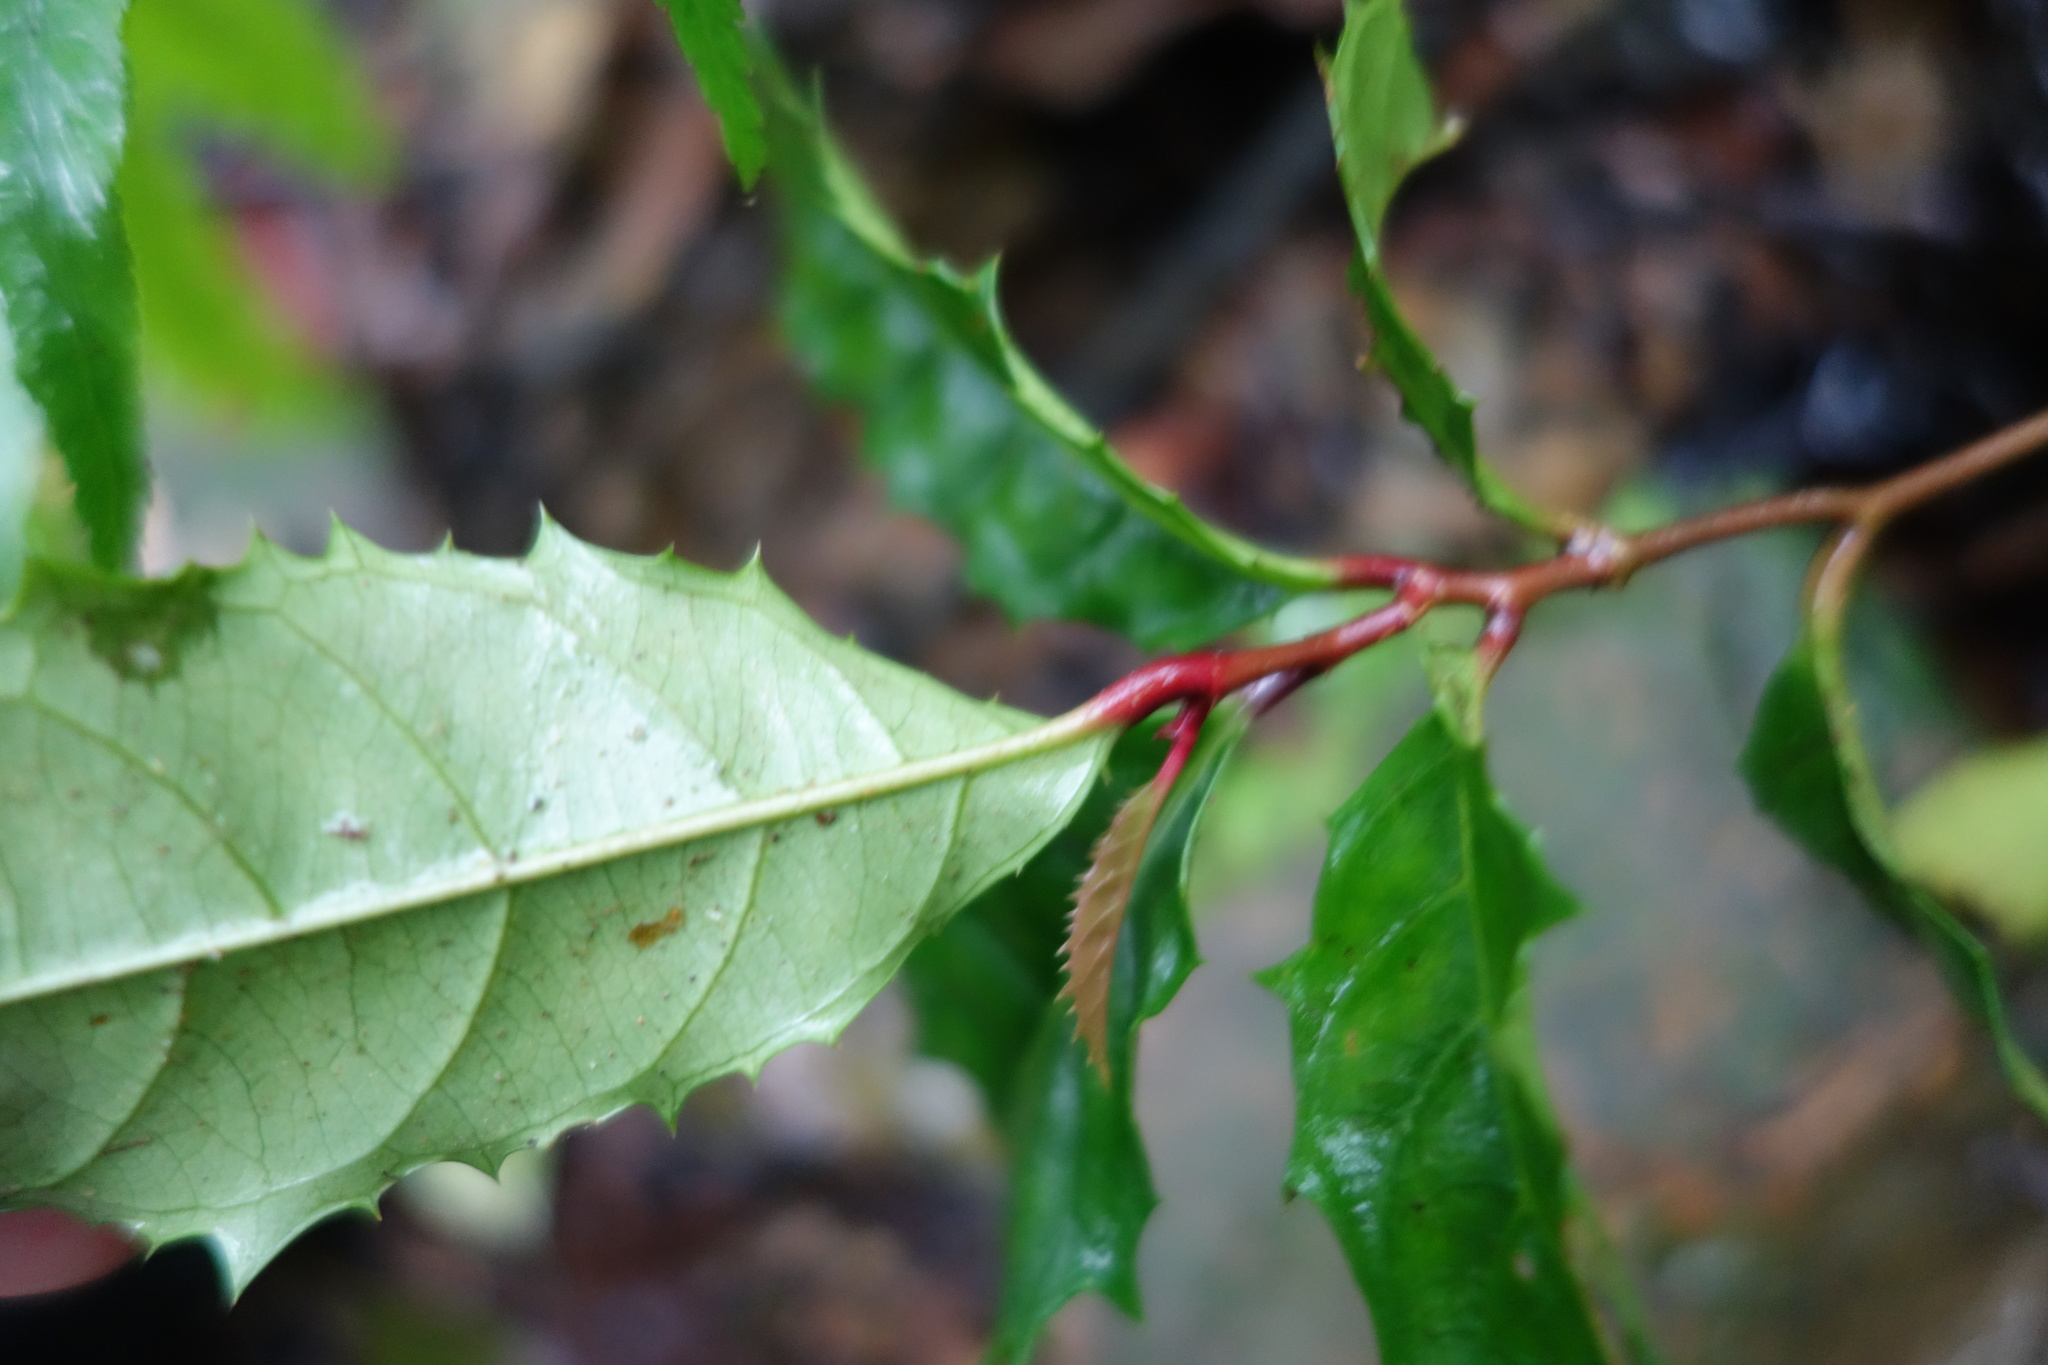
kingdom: Plantae
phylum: Tracheophyta
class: Magnoliopsida
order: Saxifragales
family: Iteaceae
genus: Itea
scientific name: Itea oldhamii
